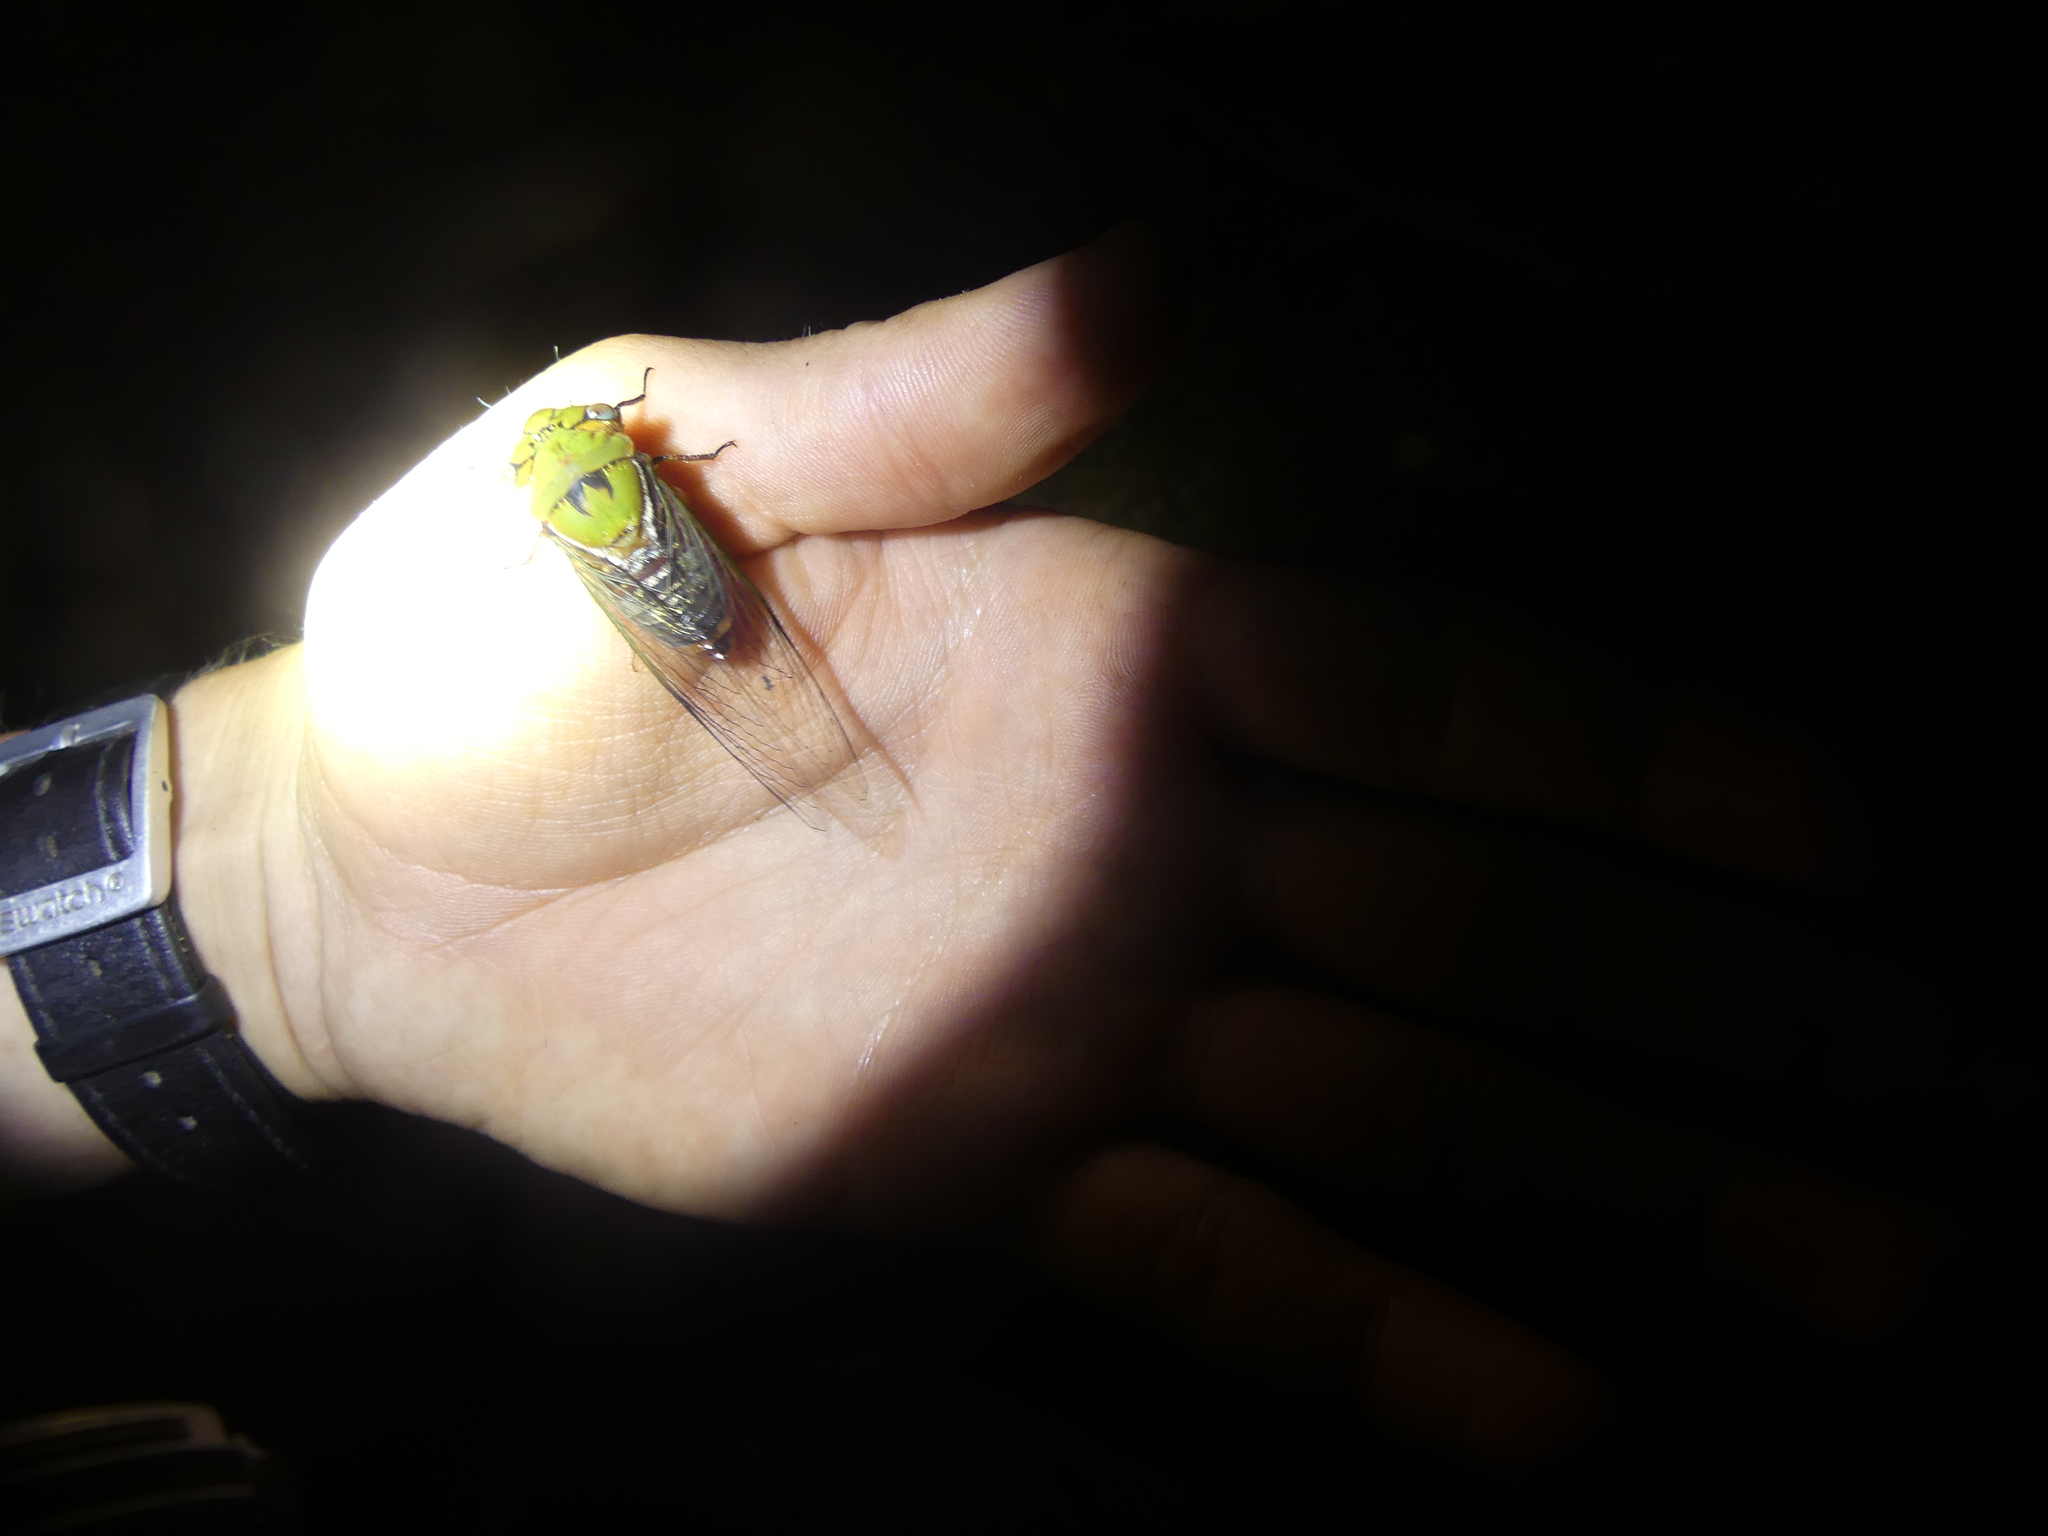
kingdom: Animalia
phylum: Arthropoda
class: Insecta
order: Hemiptera
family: Cicadidae
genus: Macrotristria
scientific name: Macrotristria kulungura
